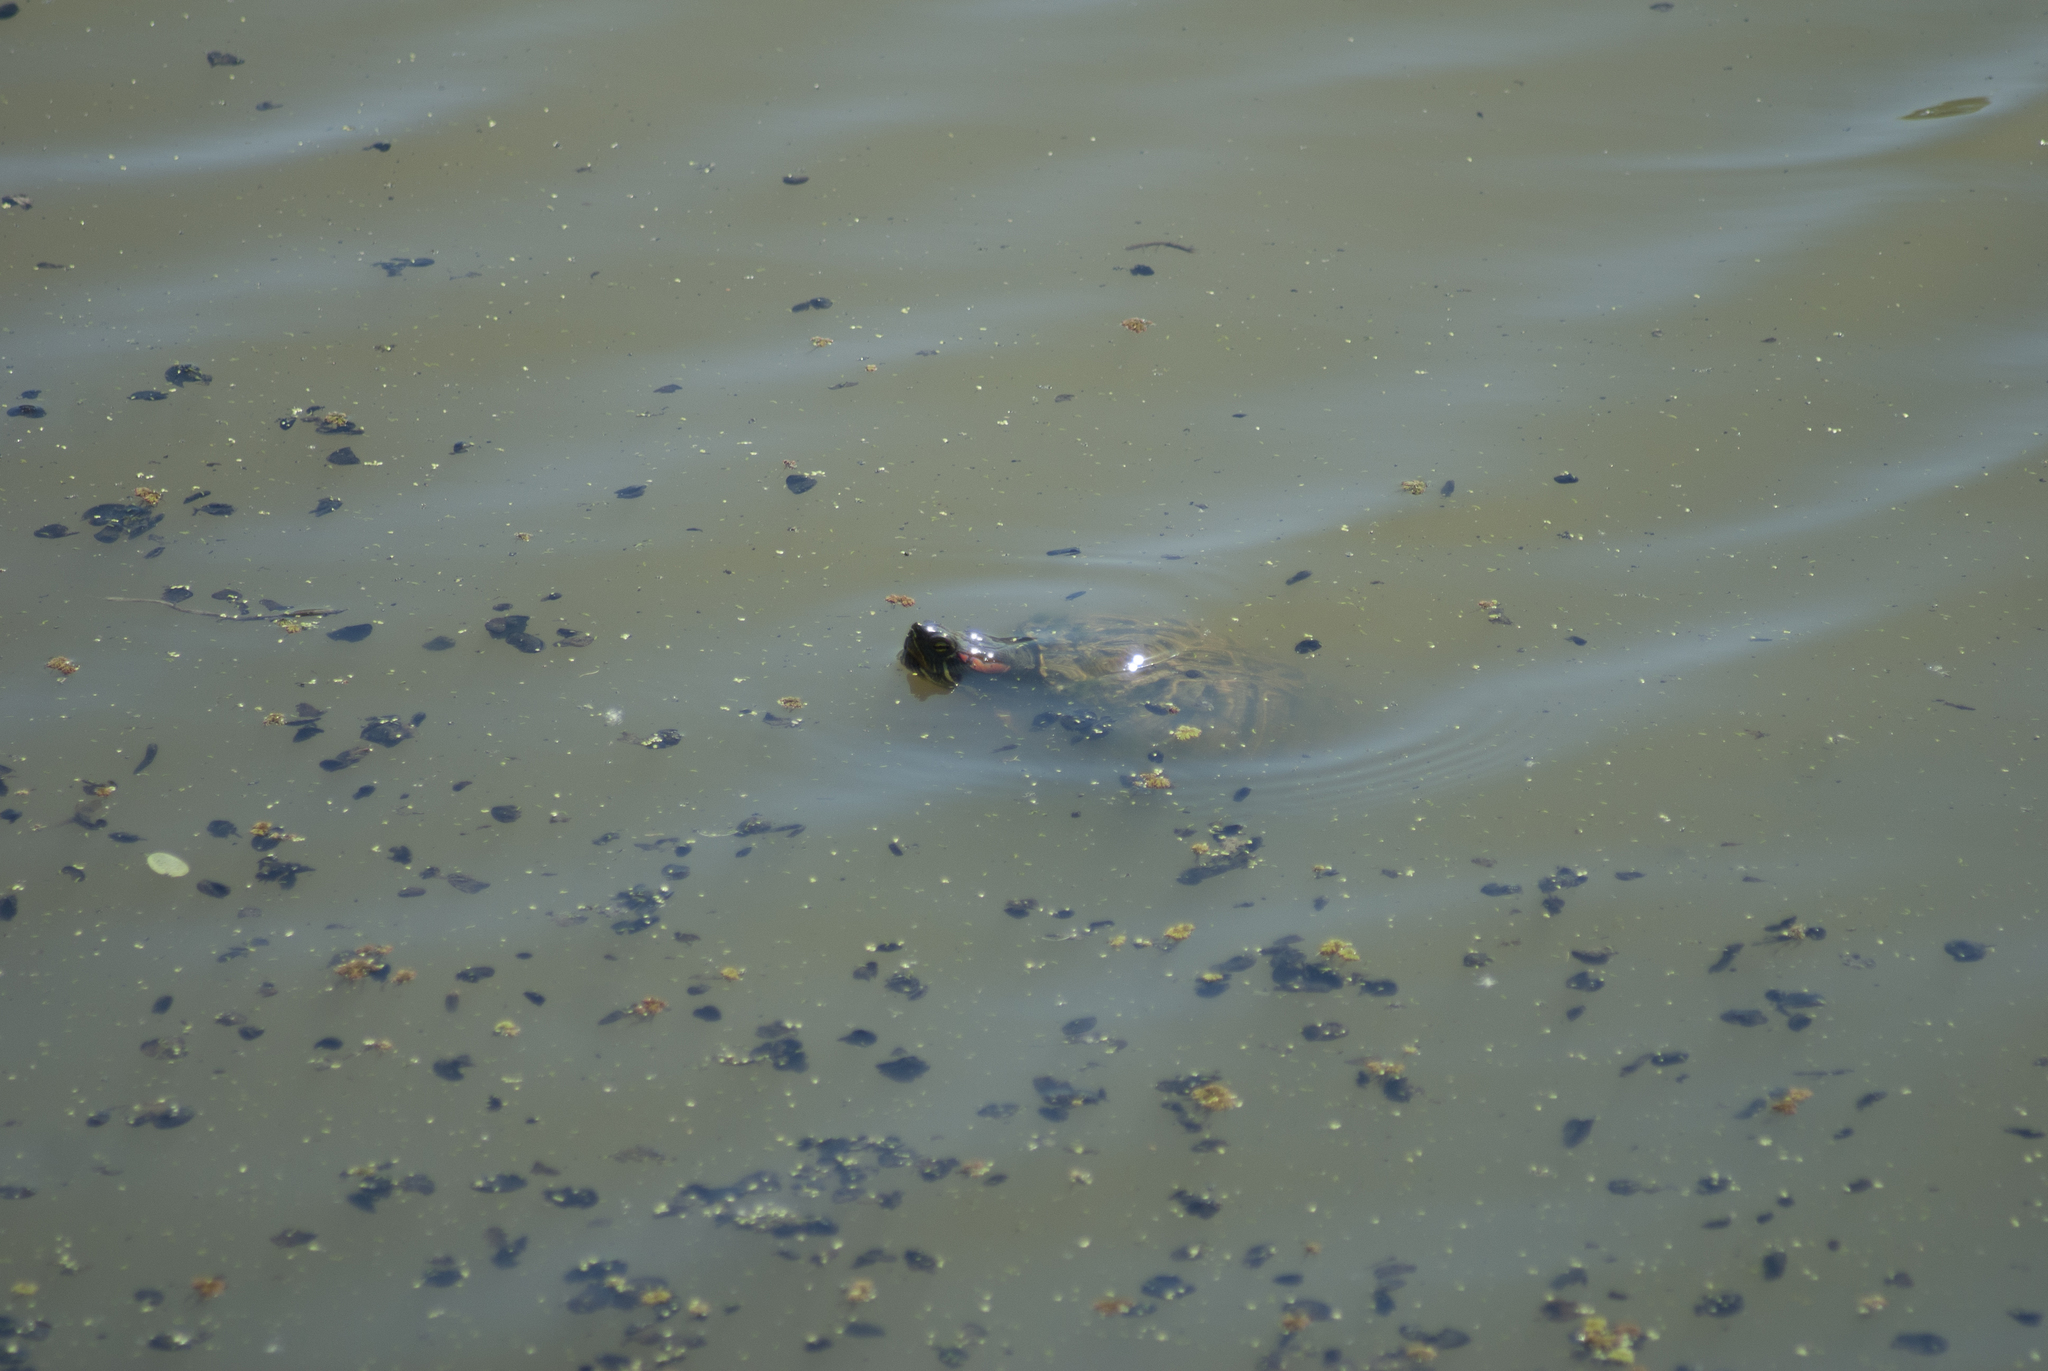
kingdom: Animalia
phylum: Chordata
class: Testudines
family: Emydidae
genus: Trachemys
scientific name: Trachemys scripta
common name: Slider
